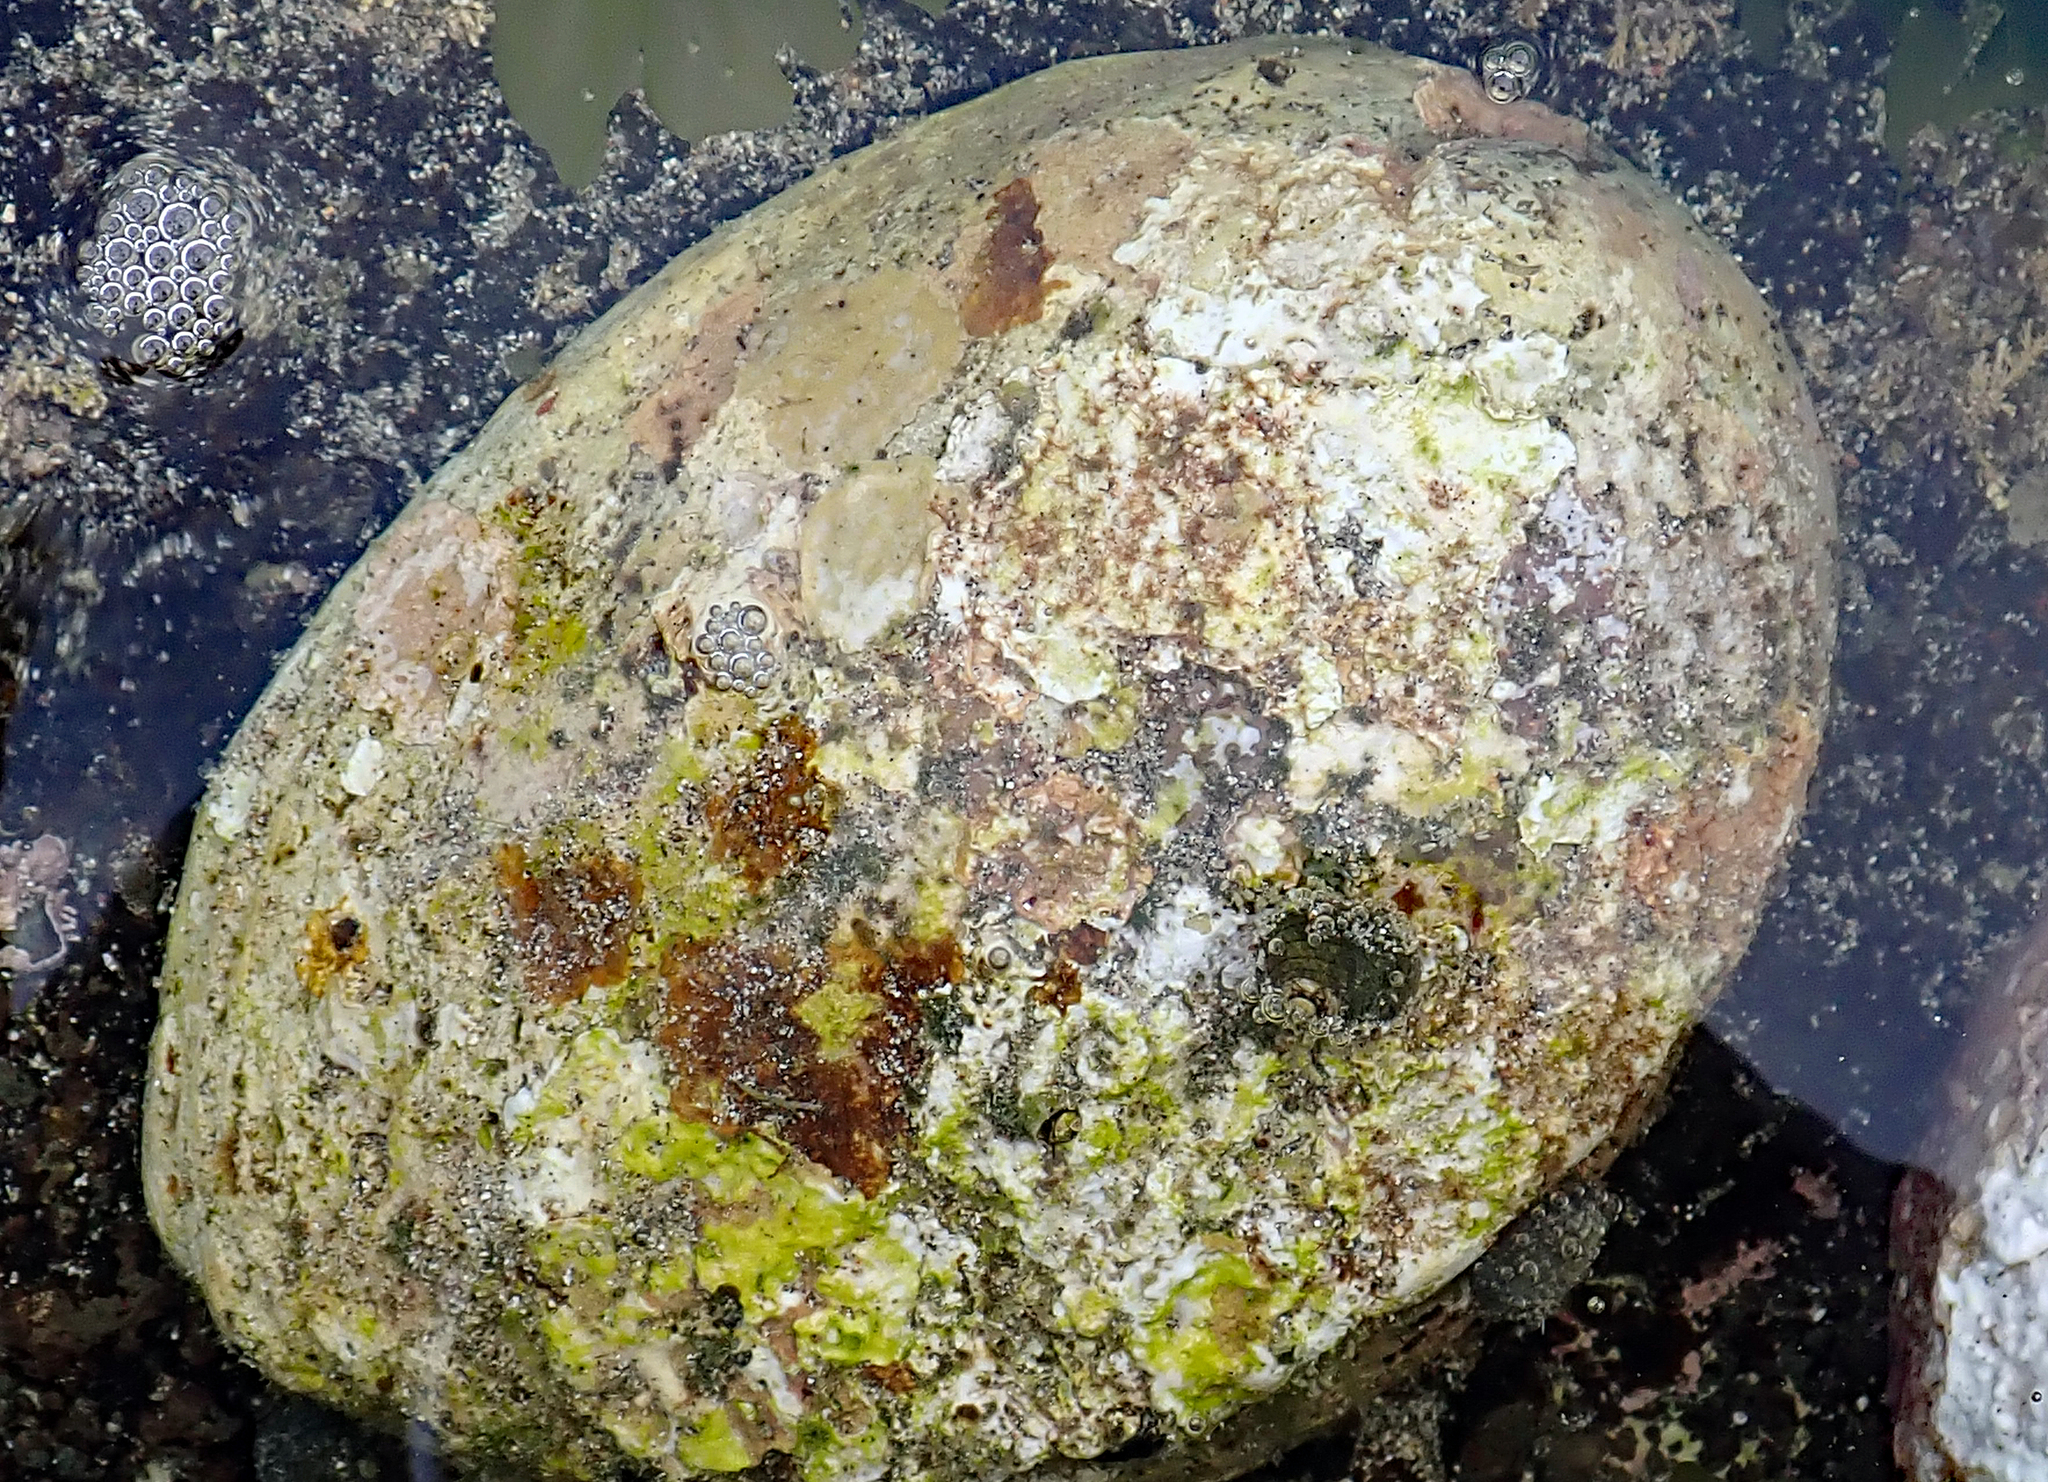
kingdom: Animalia
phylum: Mollusca
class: Gastropoda
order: Lepetellida
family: Haliotidae
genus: Haliotis
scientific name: Haliotis iris
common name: Abalone
